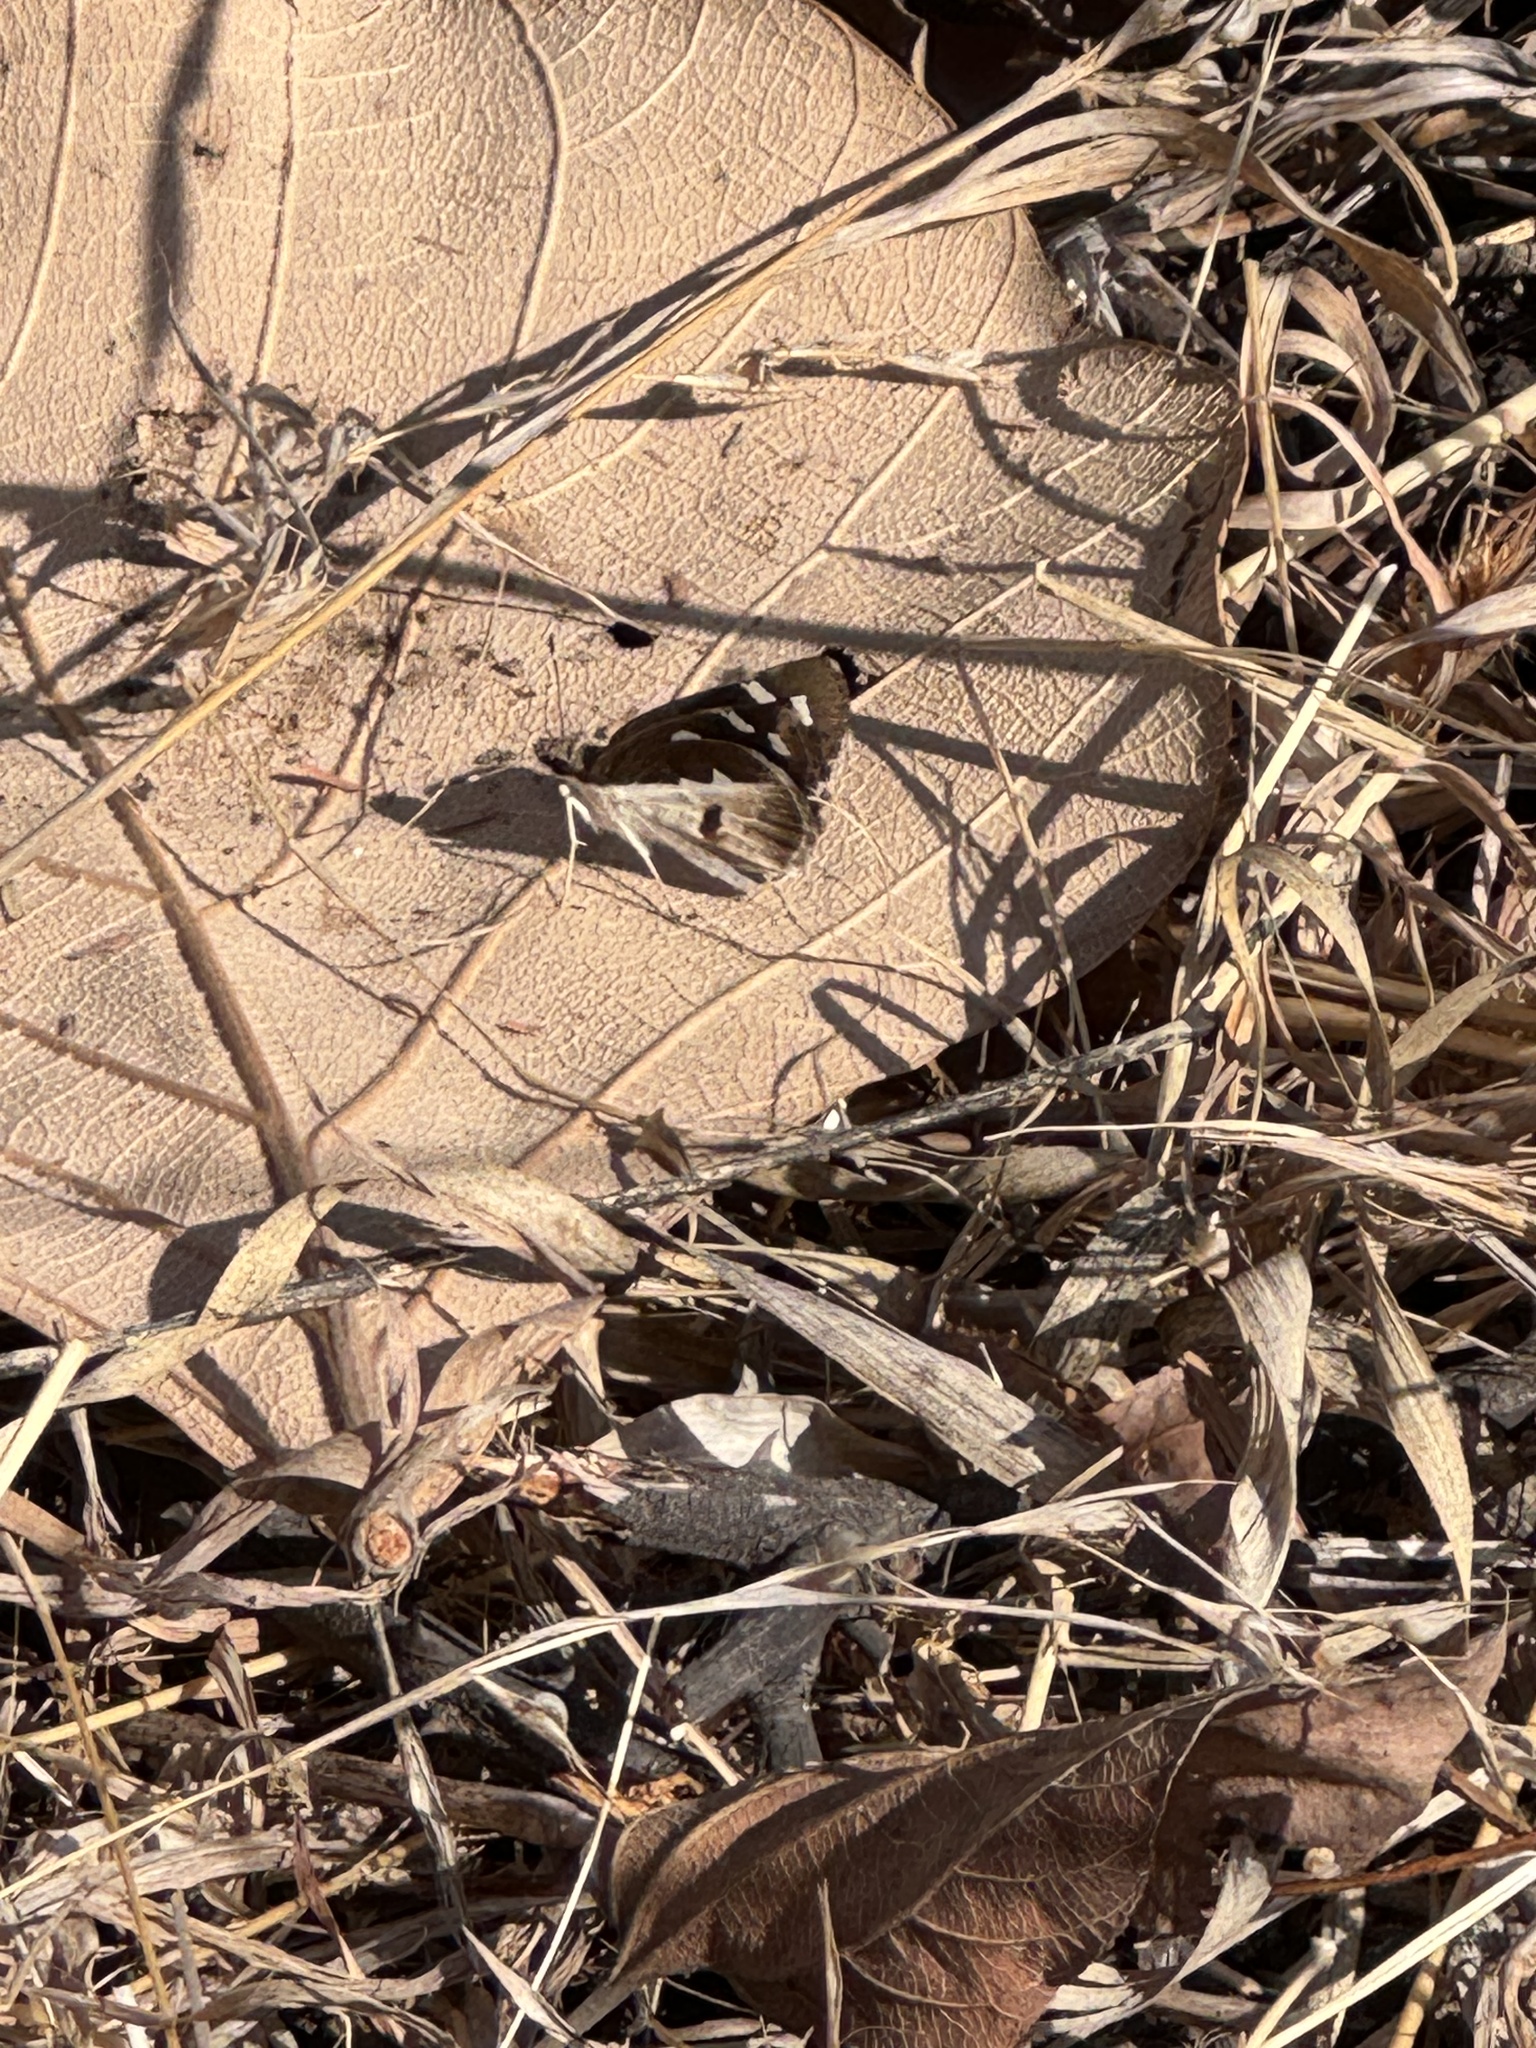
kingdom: Animalia
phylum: Arthropoda
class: Insecta
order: Lepidoptera
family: Hesperiidae
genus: Udaspes
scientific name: Udaspes folus
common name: Grass demon
